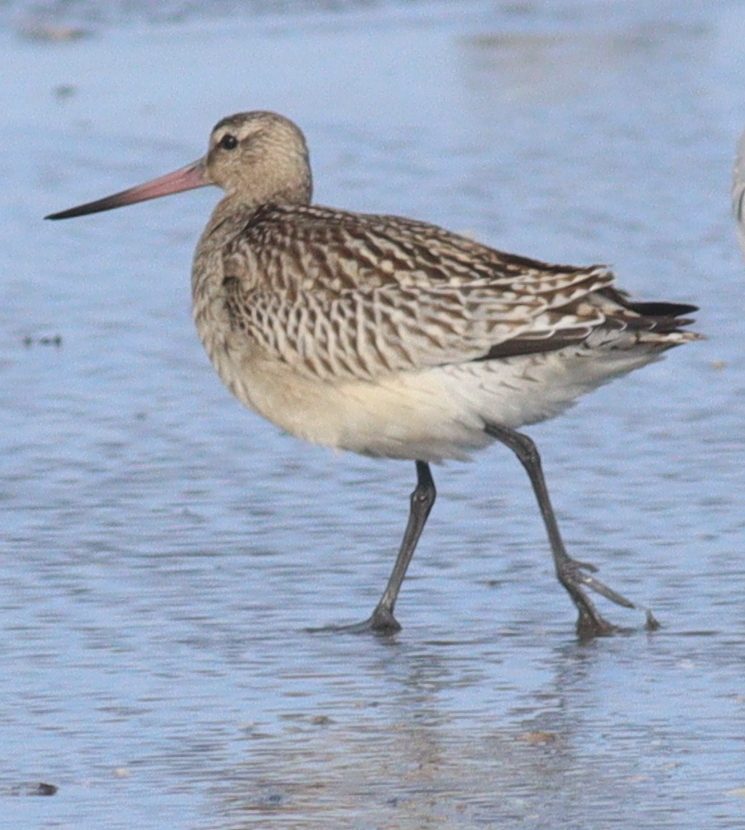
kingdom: Animalia
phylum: Chordata
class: Aves
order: Charadriiformes
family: Scolopacidae
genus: Limosa
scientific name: Limosa lapponica
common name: Bar-tailed godwit
